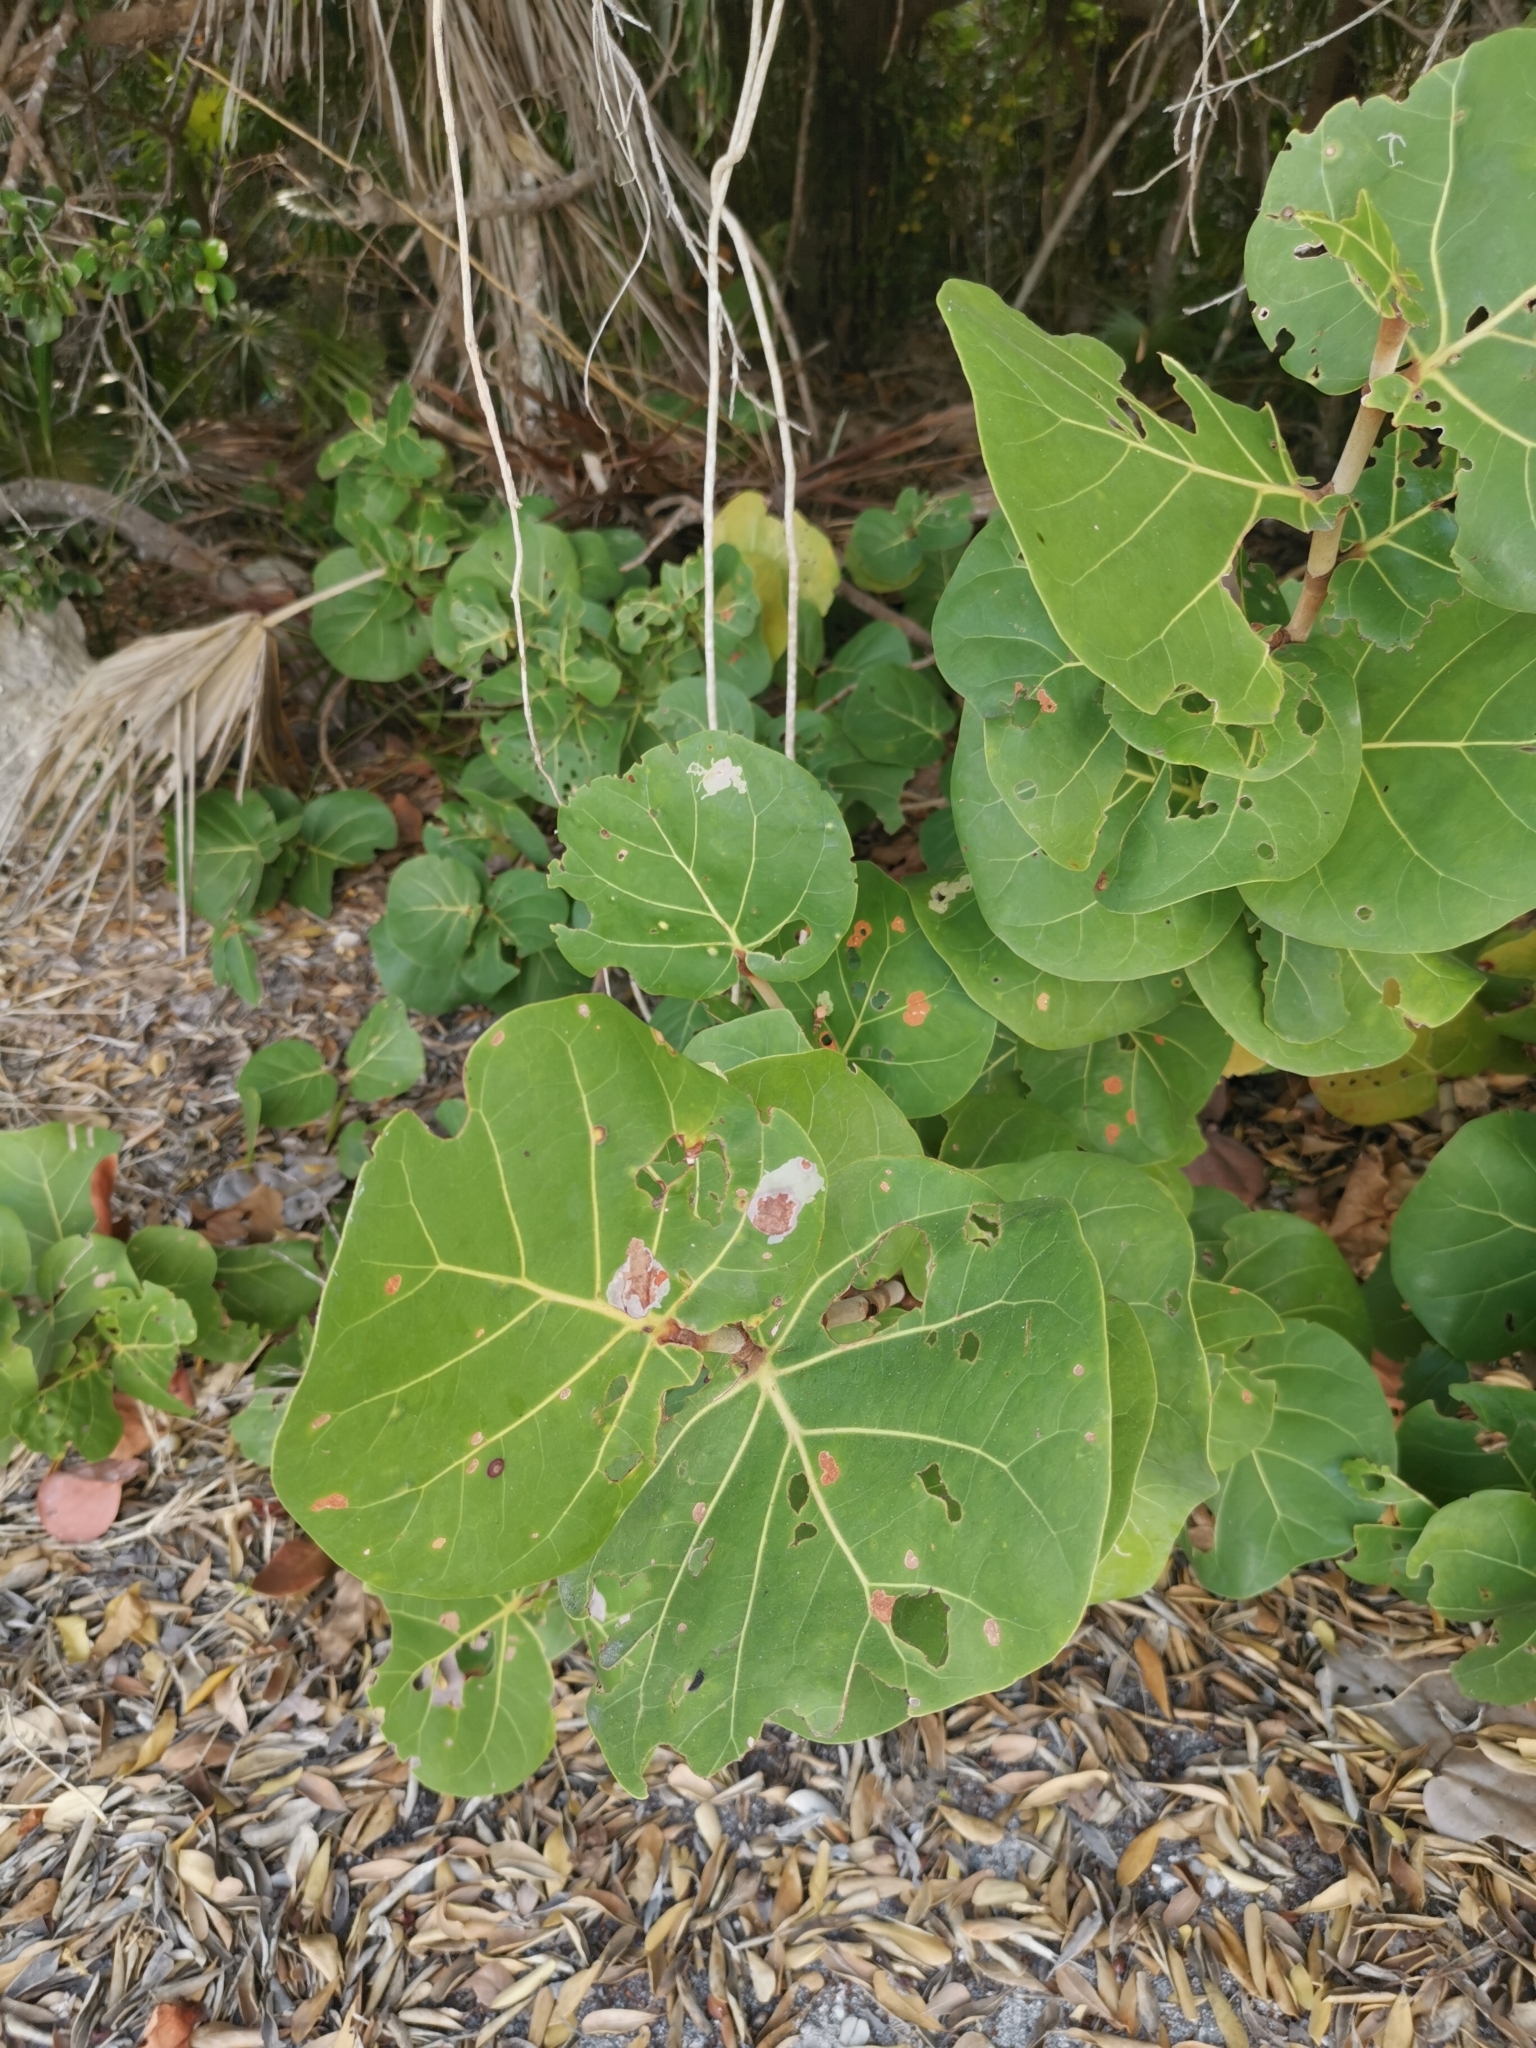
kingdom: Plantae
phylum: Tracheophyta
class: Magnoliopsida
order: Caryophyllales
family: Polygonaceae
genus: Coccoloba
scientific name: Coccoloba uvifera
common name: Seagrape
